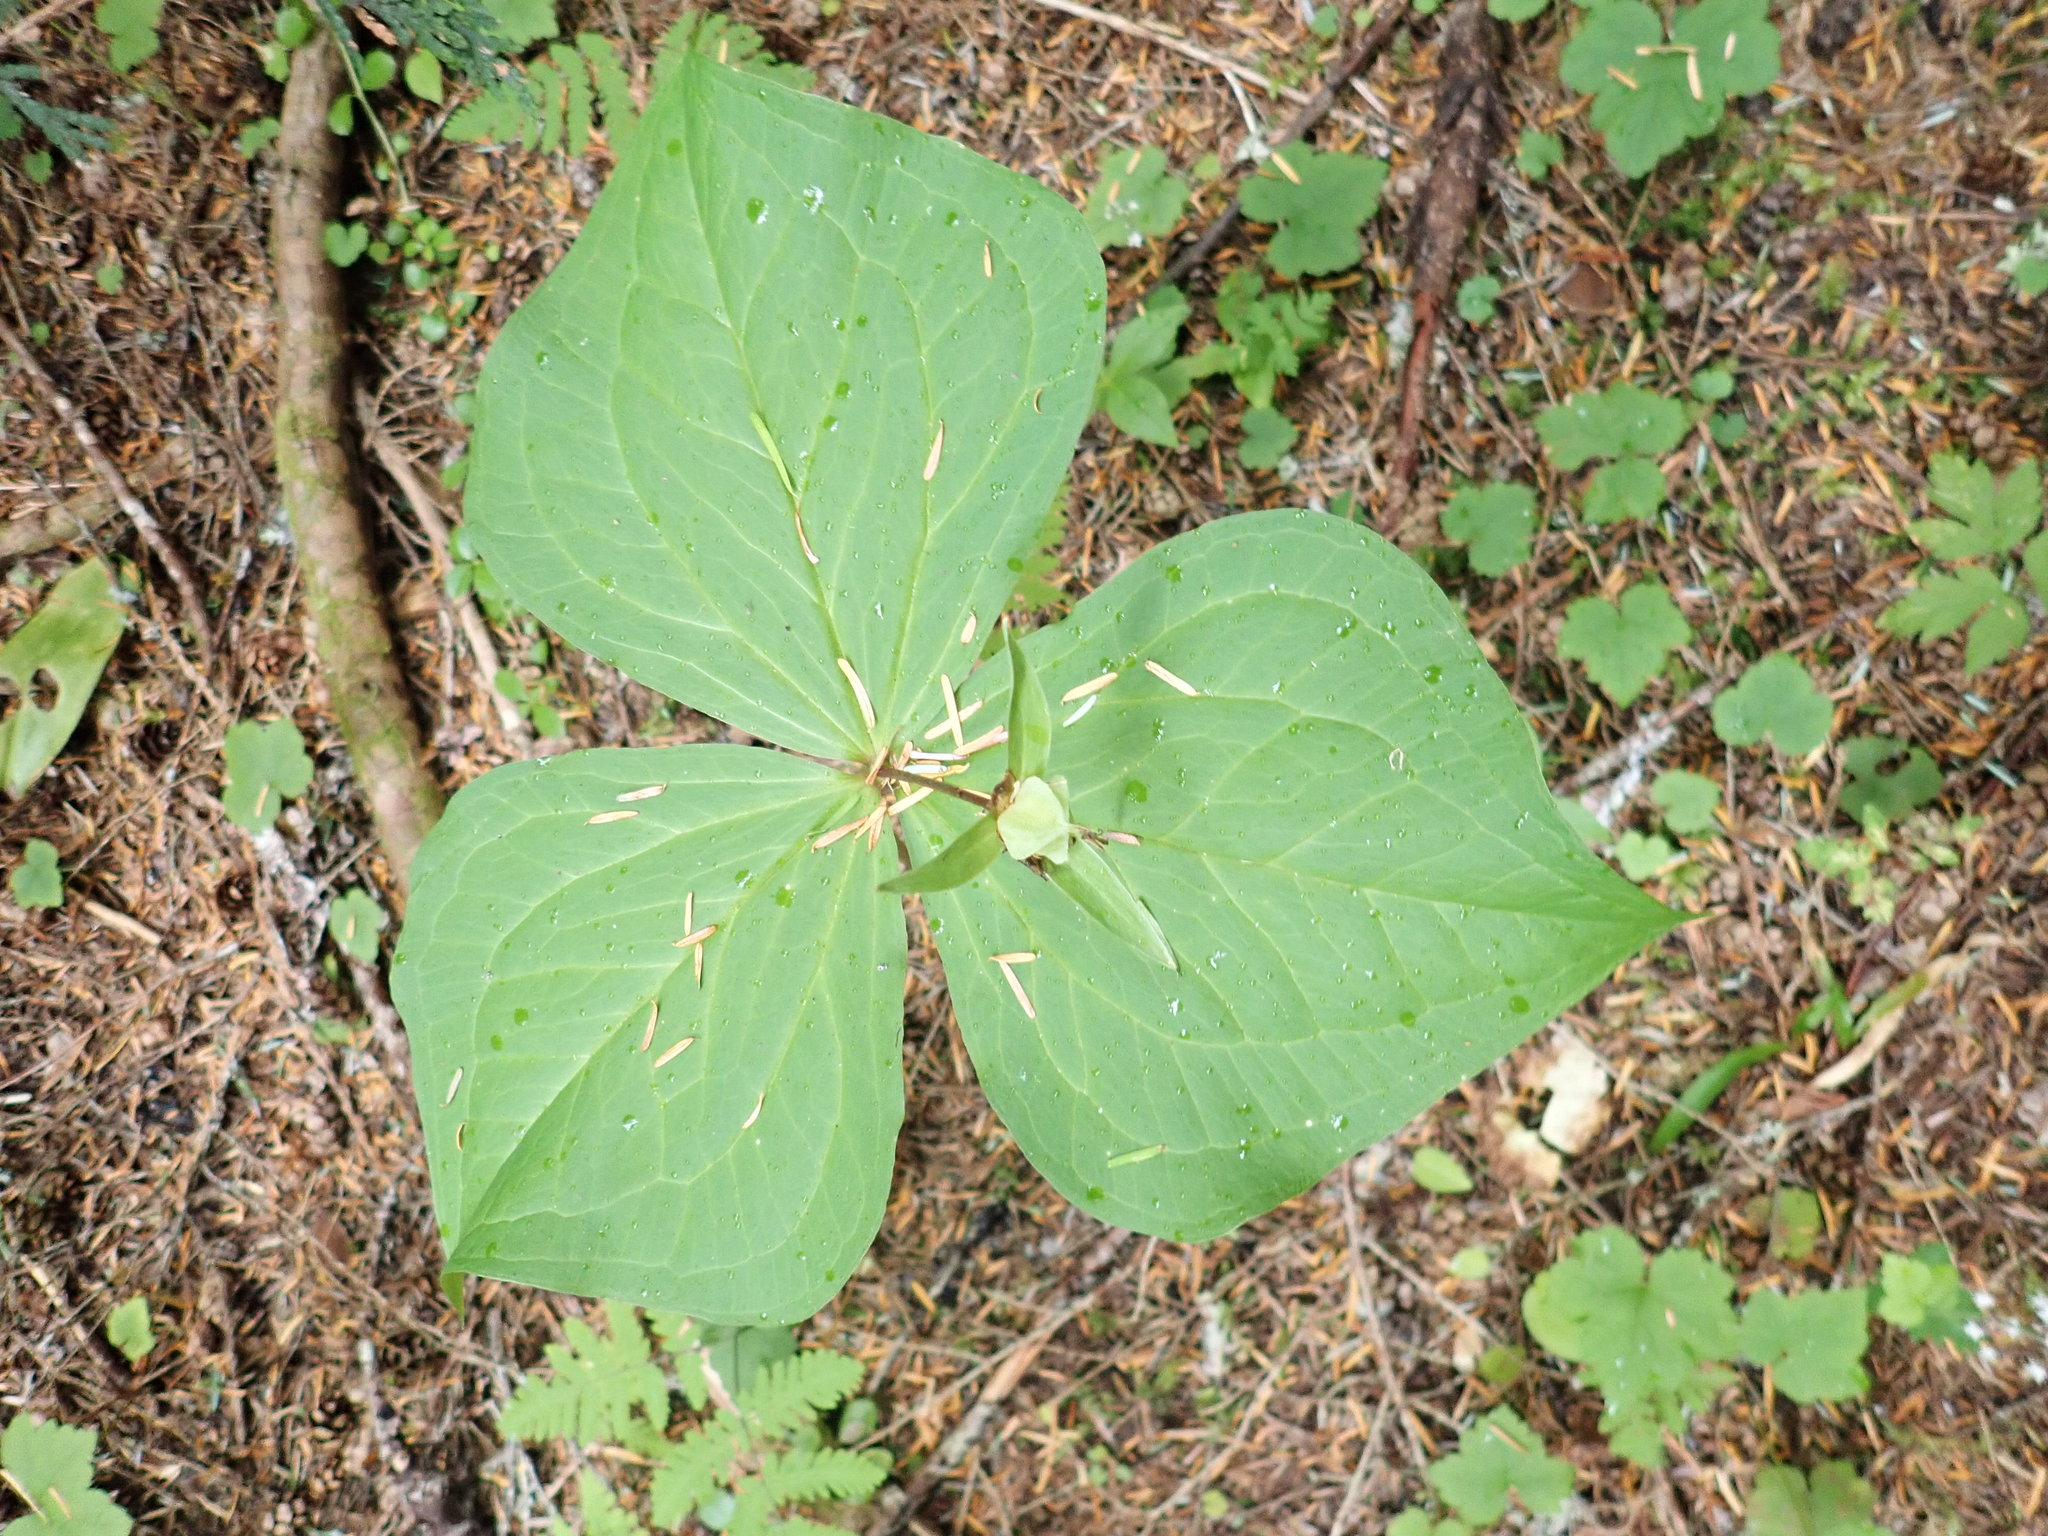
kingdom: Plantae
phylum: Tracheophyta
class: Liliopsida
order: Liliales
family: Melanthiaceae
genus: Trillium
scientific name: Trillium ovatum
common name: Pacific trillium
